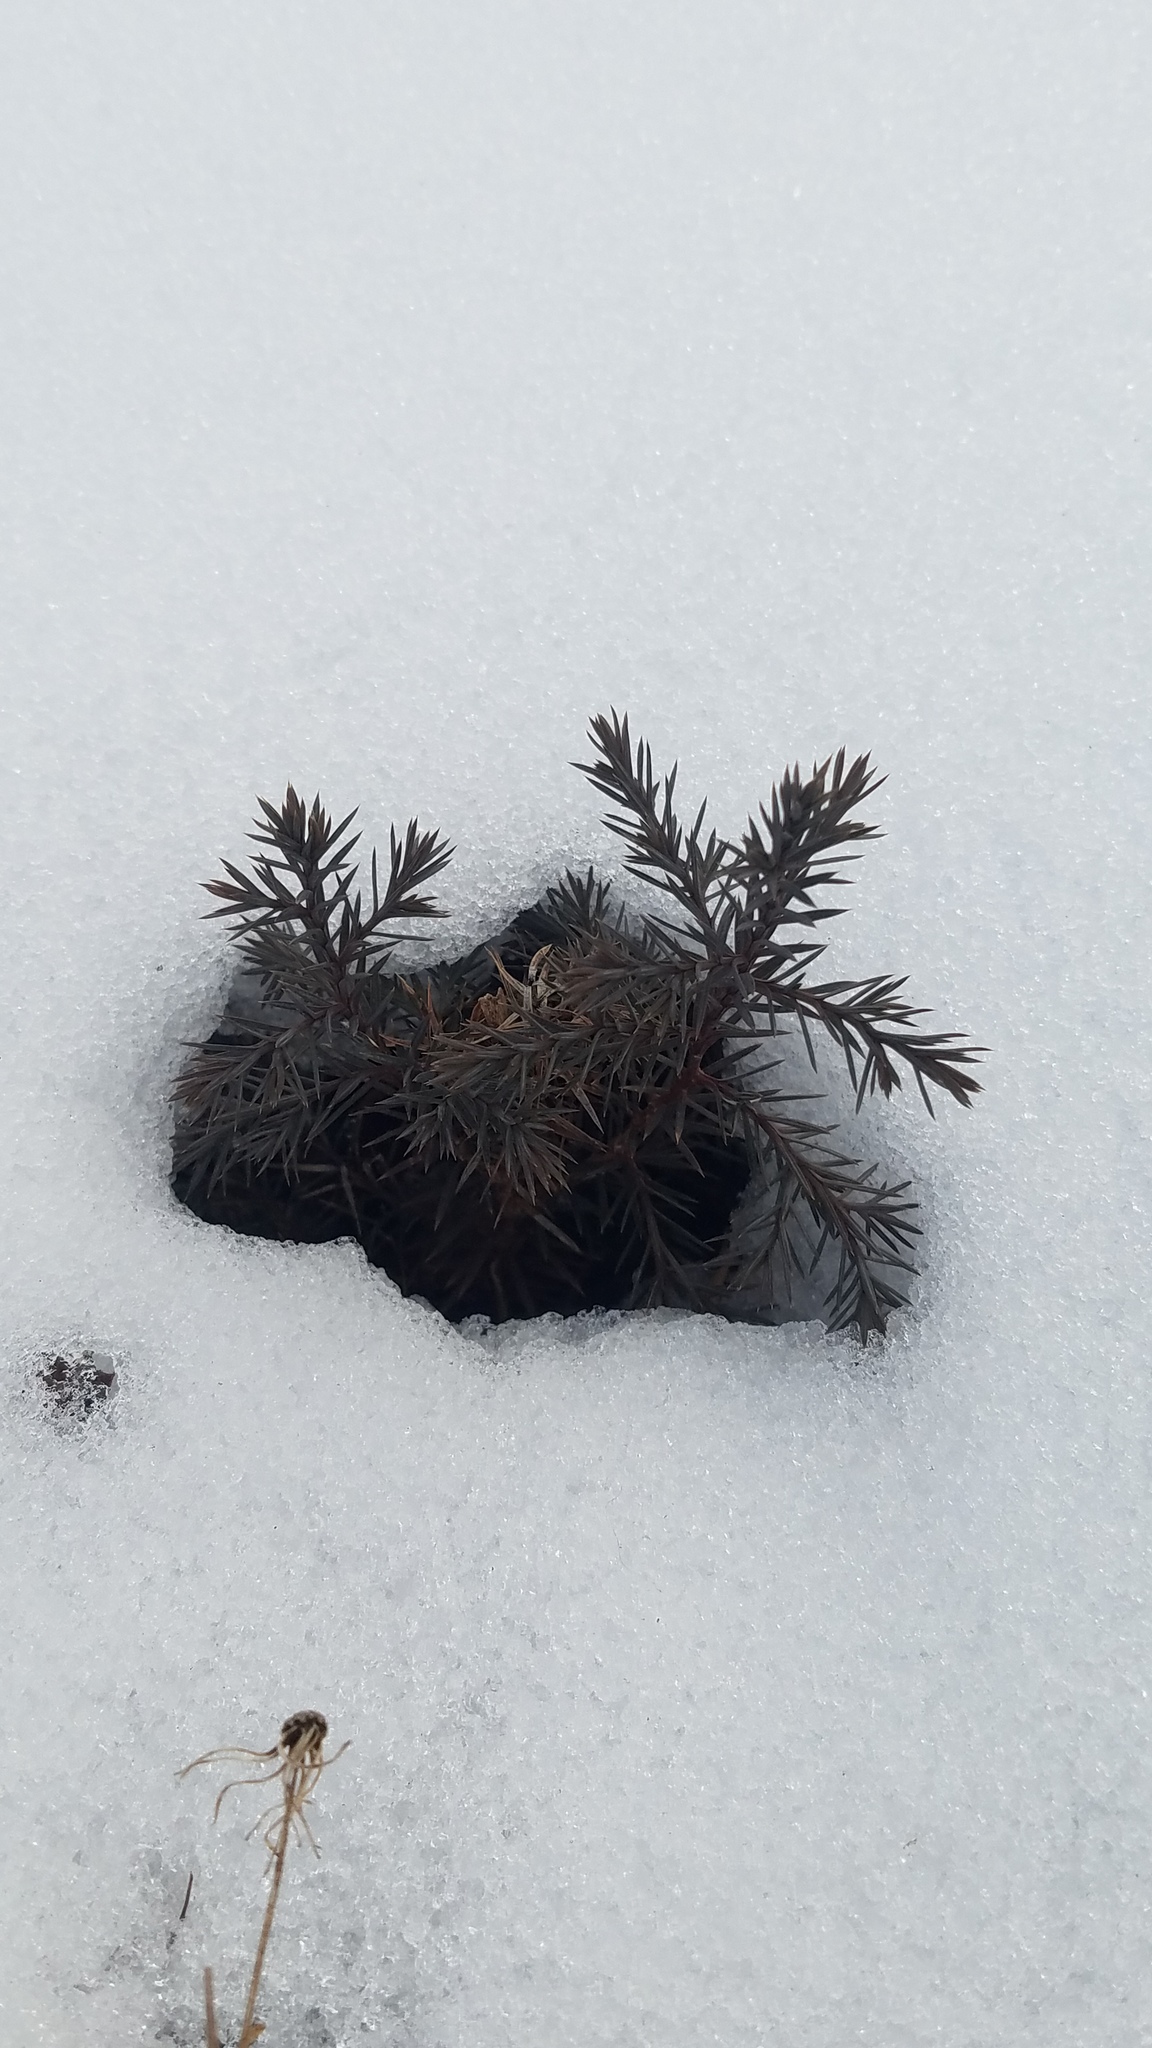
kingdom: Plantae
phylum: Tracheophyta
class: Pinopsida
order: Pinales
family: Cupressaceae
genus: Juniperus
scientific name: Juniperus virginiana
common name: Red juniper
